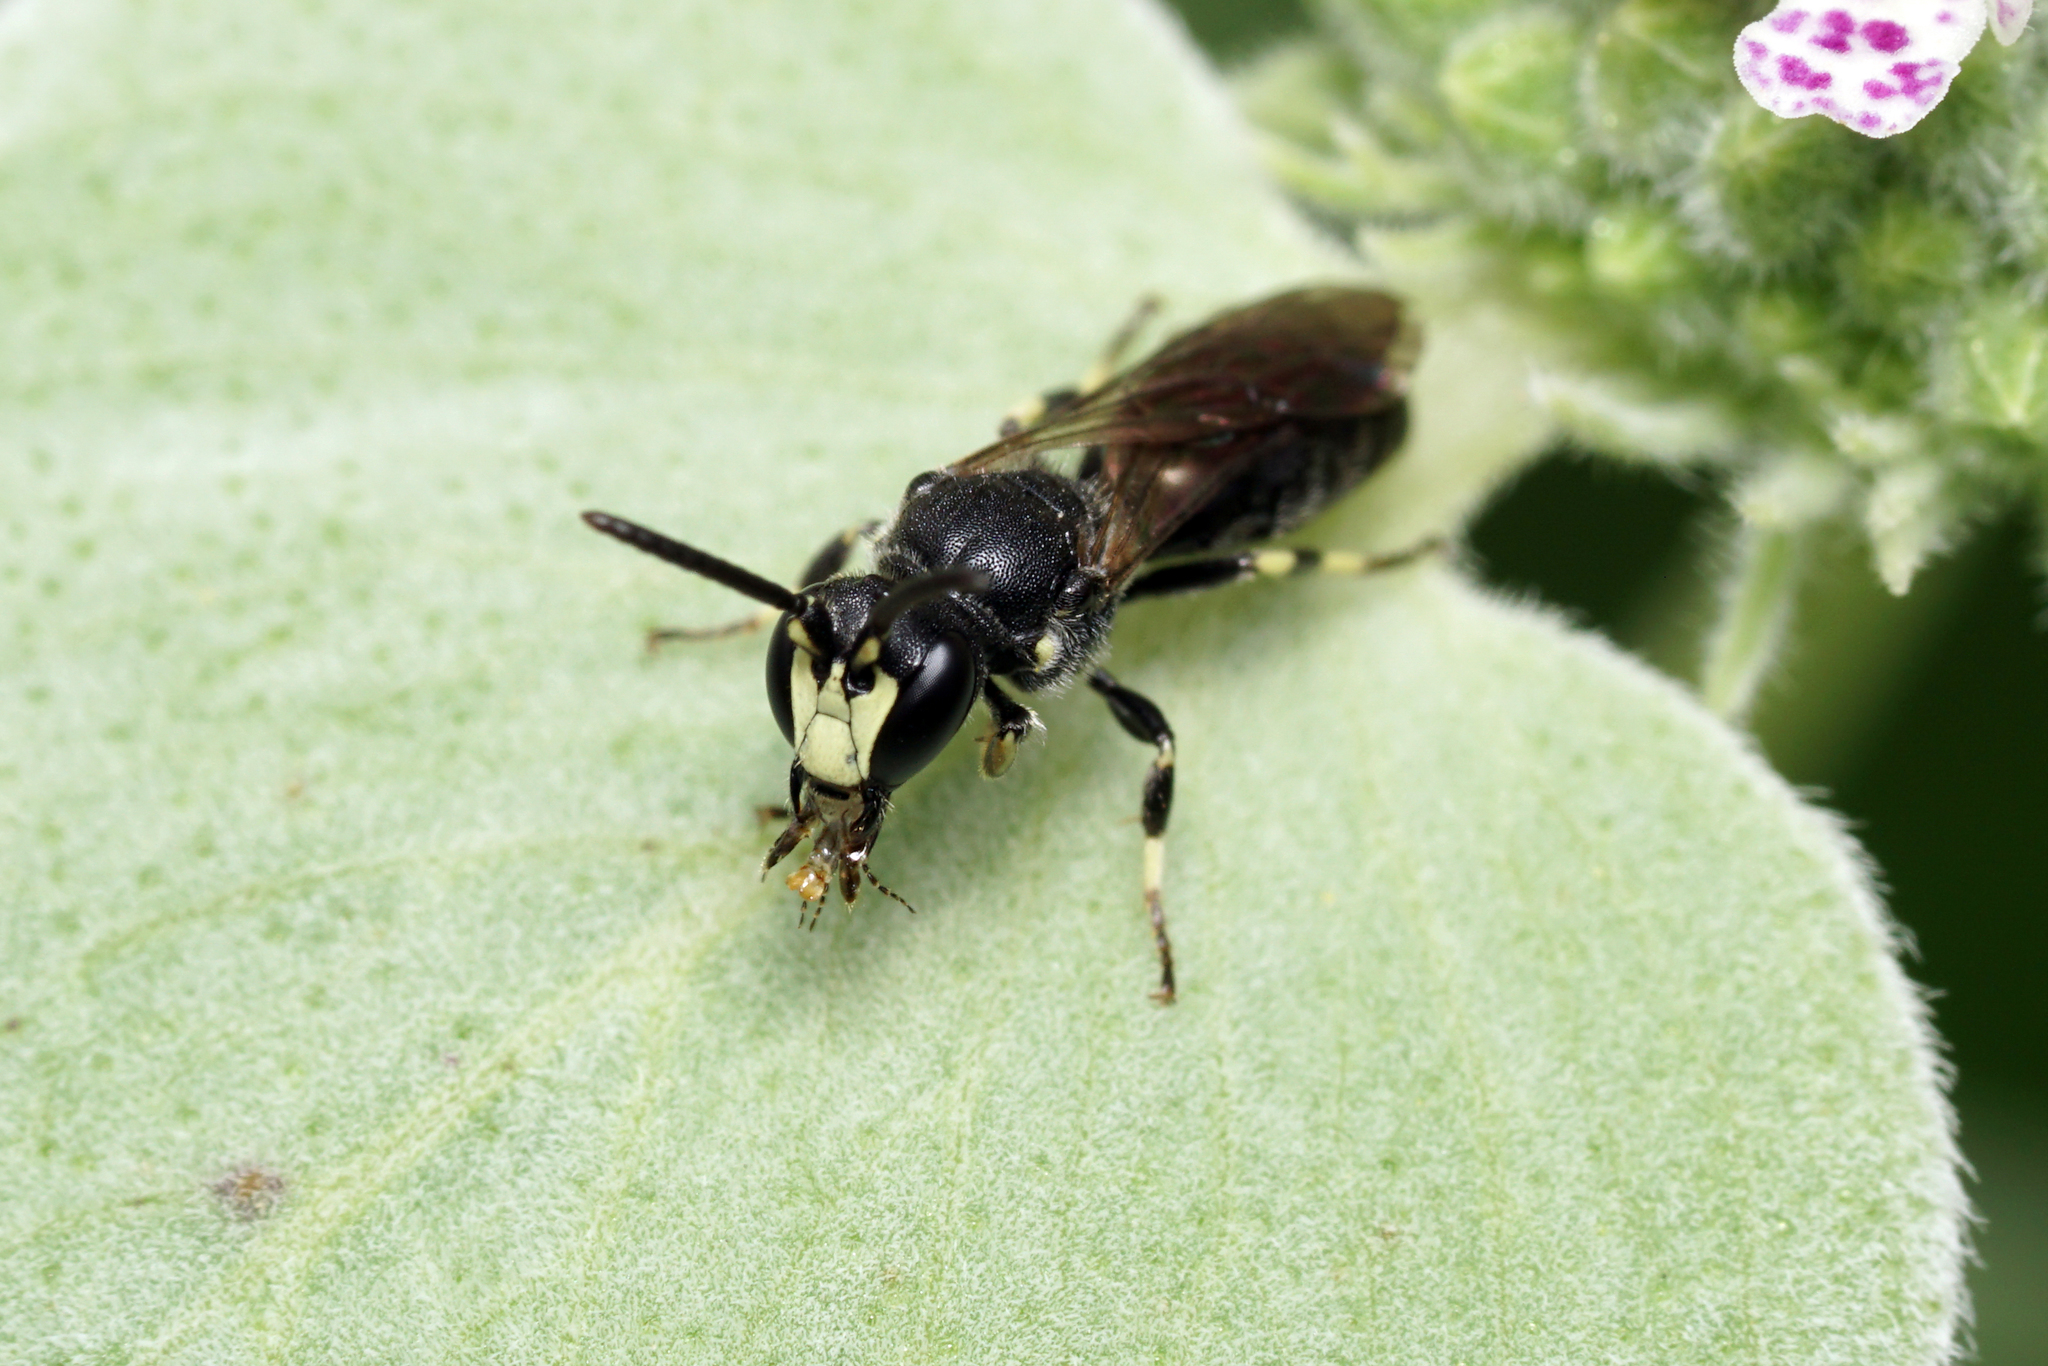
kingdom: Animalia
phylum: Arthropoda
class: Insecta
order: Hymenoptera
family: Colletidae
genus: Hylaeus
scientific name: Hylaeus annulatus
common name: Annulate masked bee
